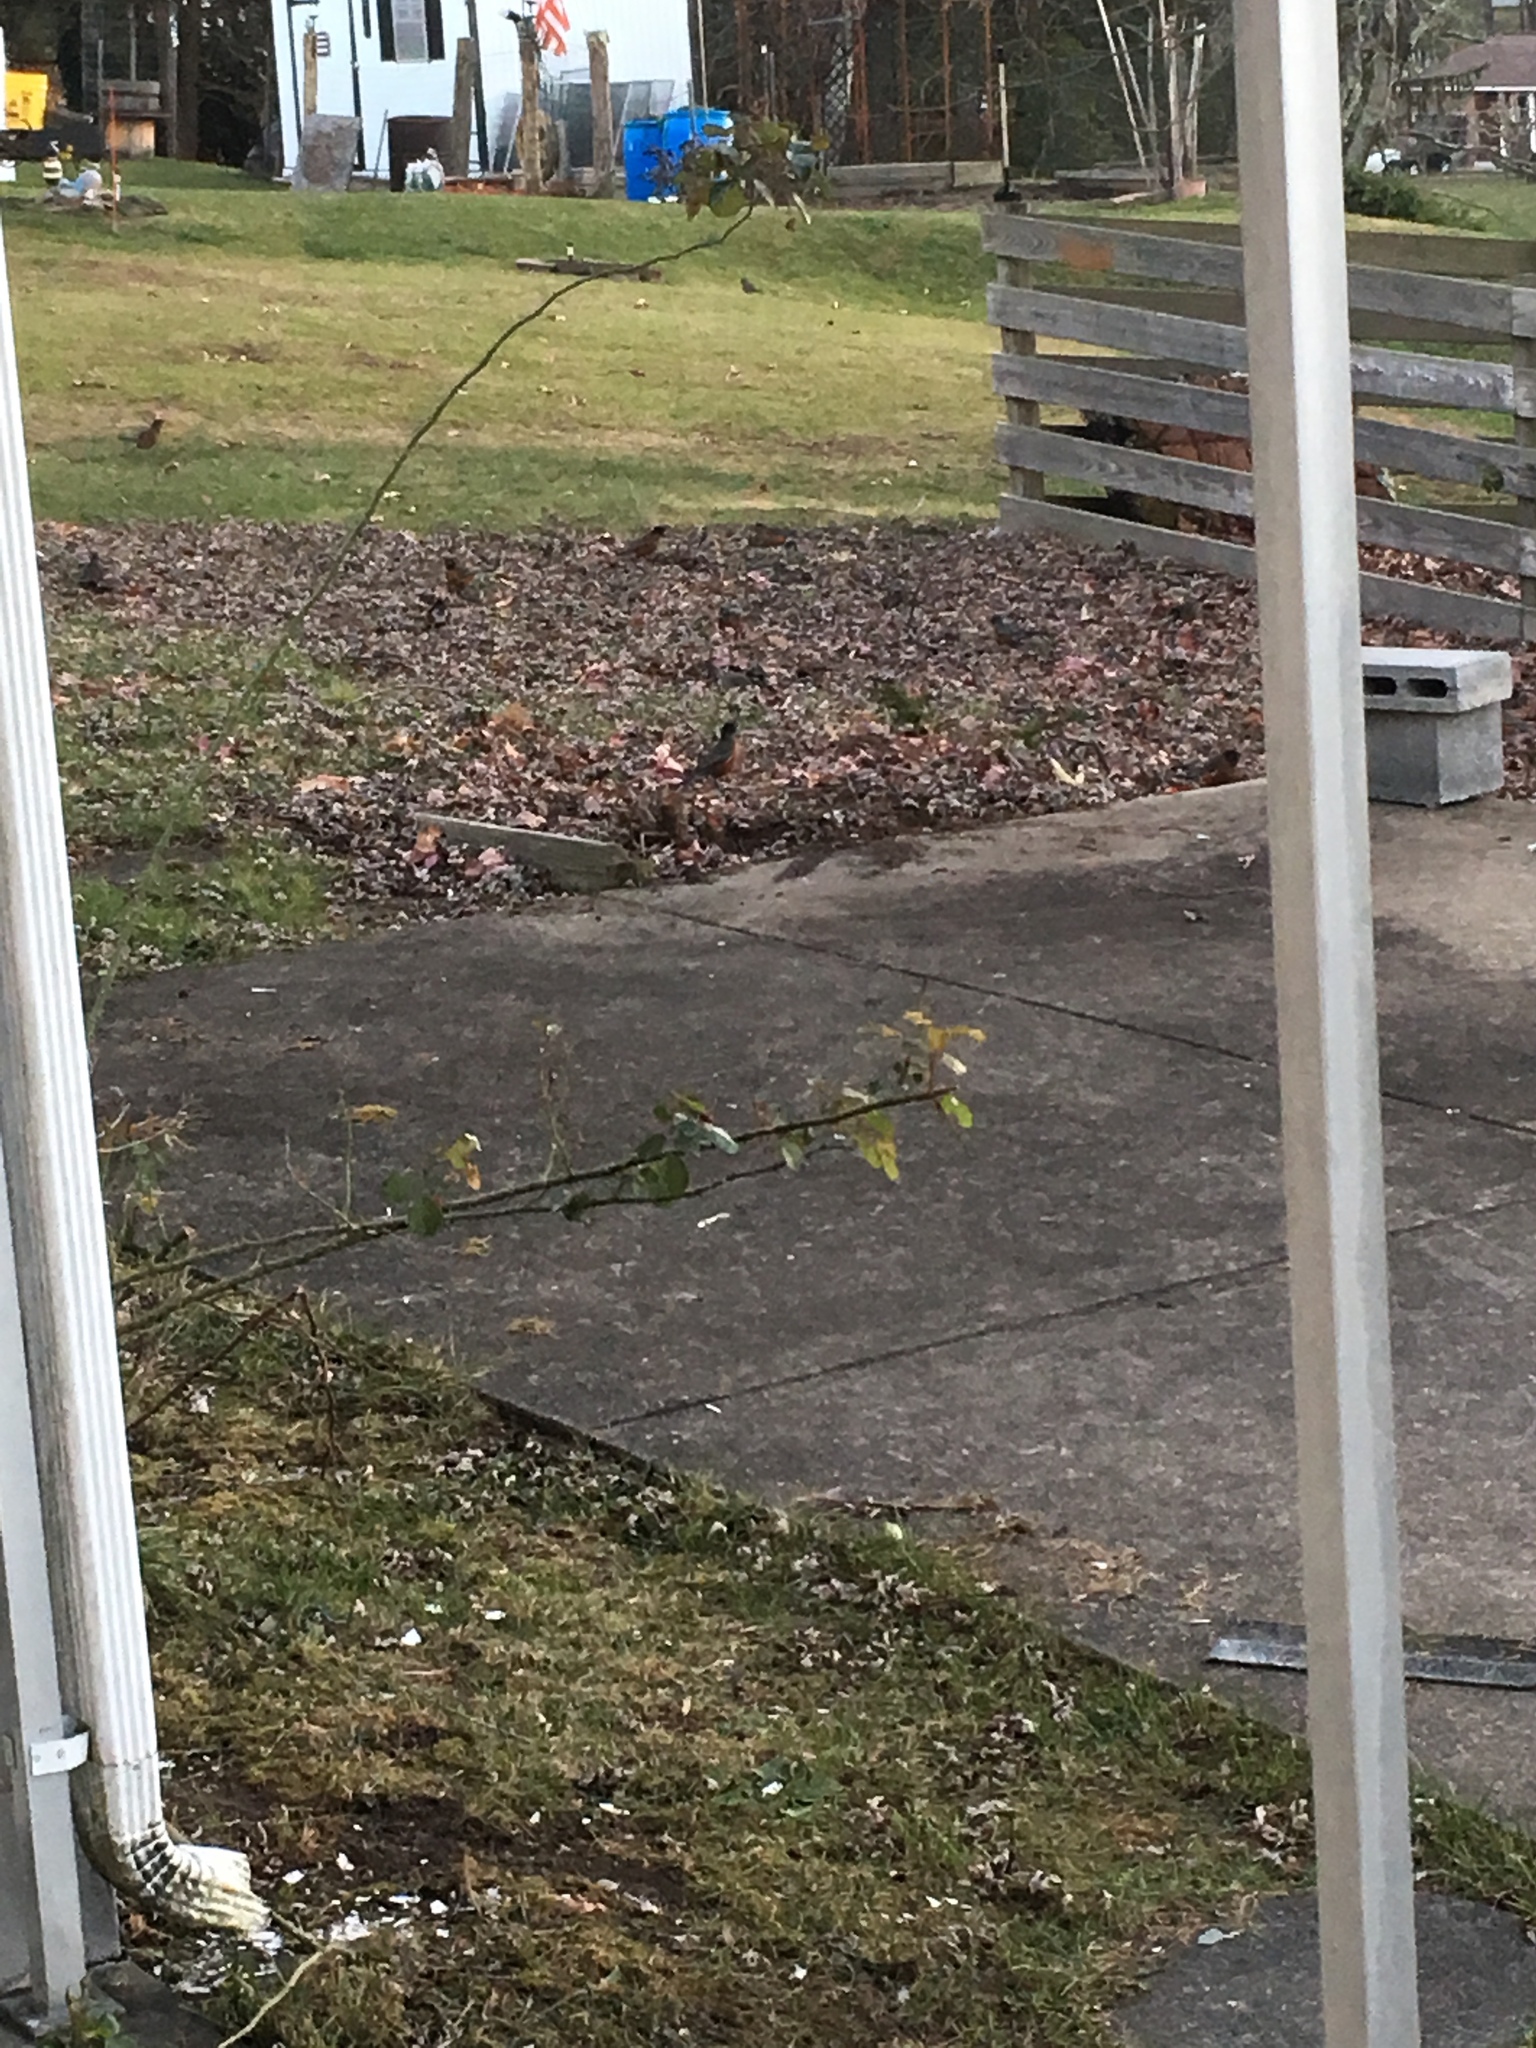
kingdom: Animalia
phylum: Chordata
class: Aves
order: Passeriformes
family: Turdidae
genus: Turdus
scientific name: Turdus migratorius
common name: American robin
